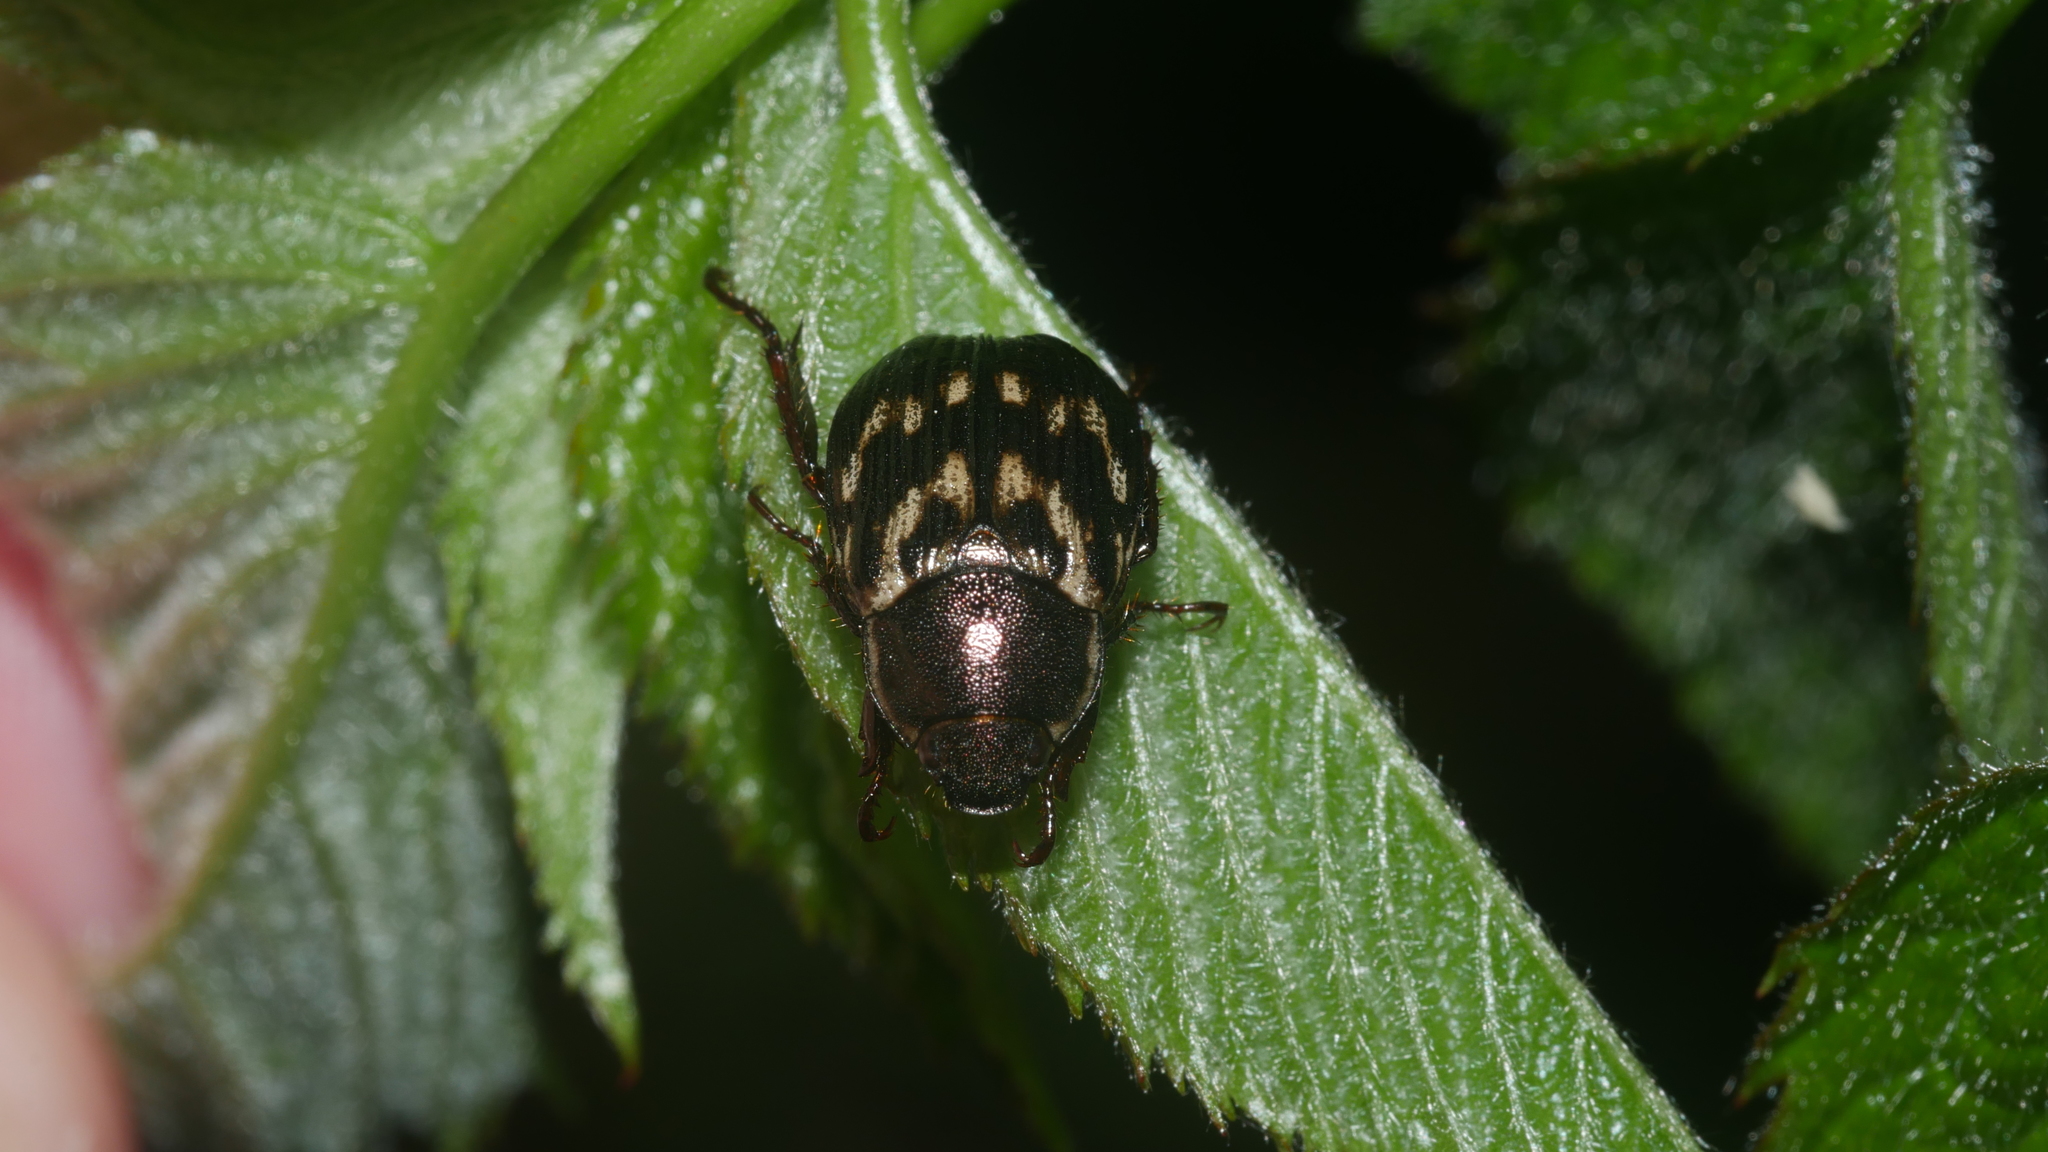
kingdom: Animalia
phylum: Arthropoda
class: Insecta
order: Coleoptera
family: Scarabaeidae
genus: Exomala
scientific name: Exomala orientalis
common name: Oriental beetle
